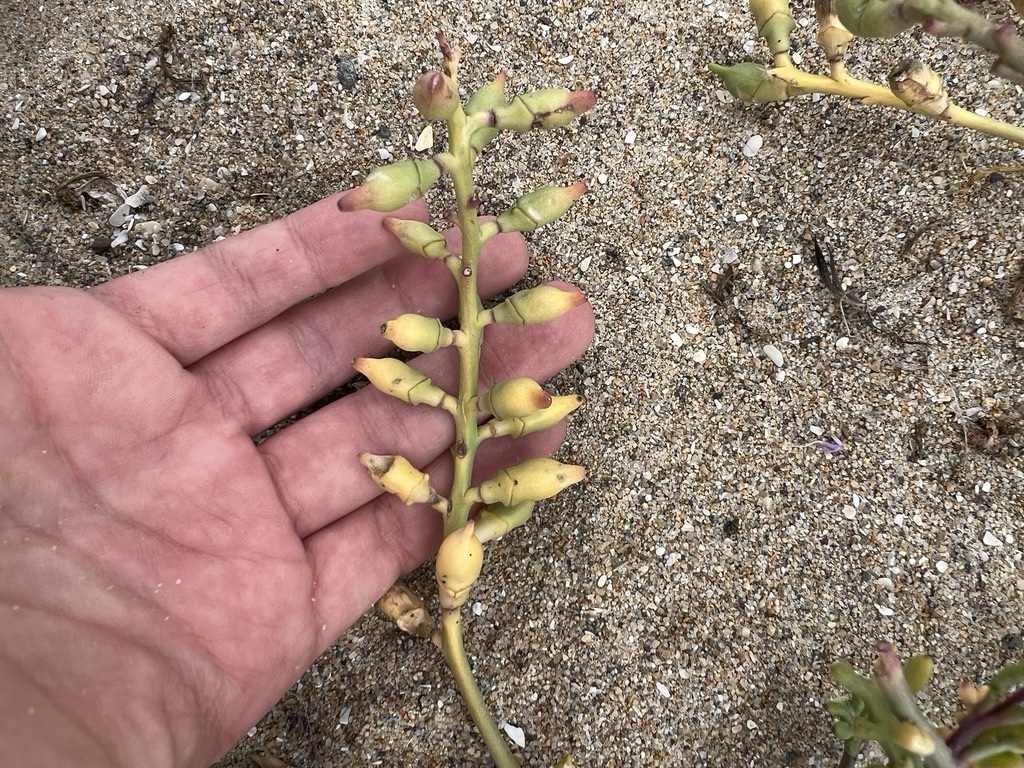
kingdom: Plantae
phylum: Tracheophyta
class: Magnoliopsida
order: Brassicales
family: Brassicaceae
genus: Cakile
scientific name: Cakile maritima
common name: Sea rocket
